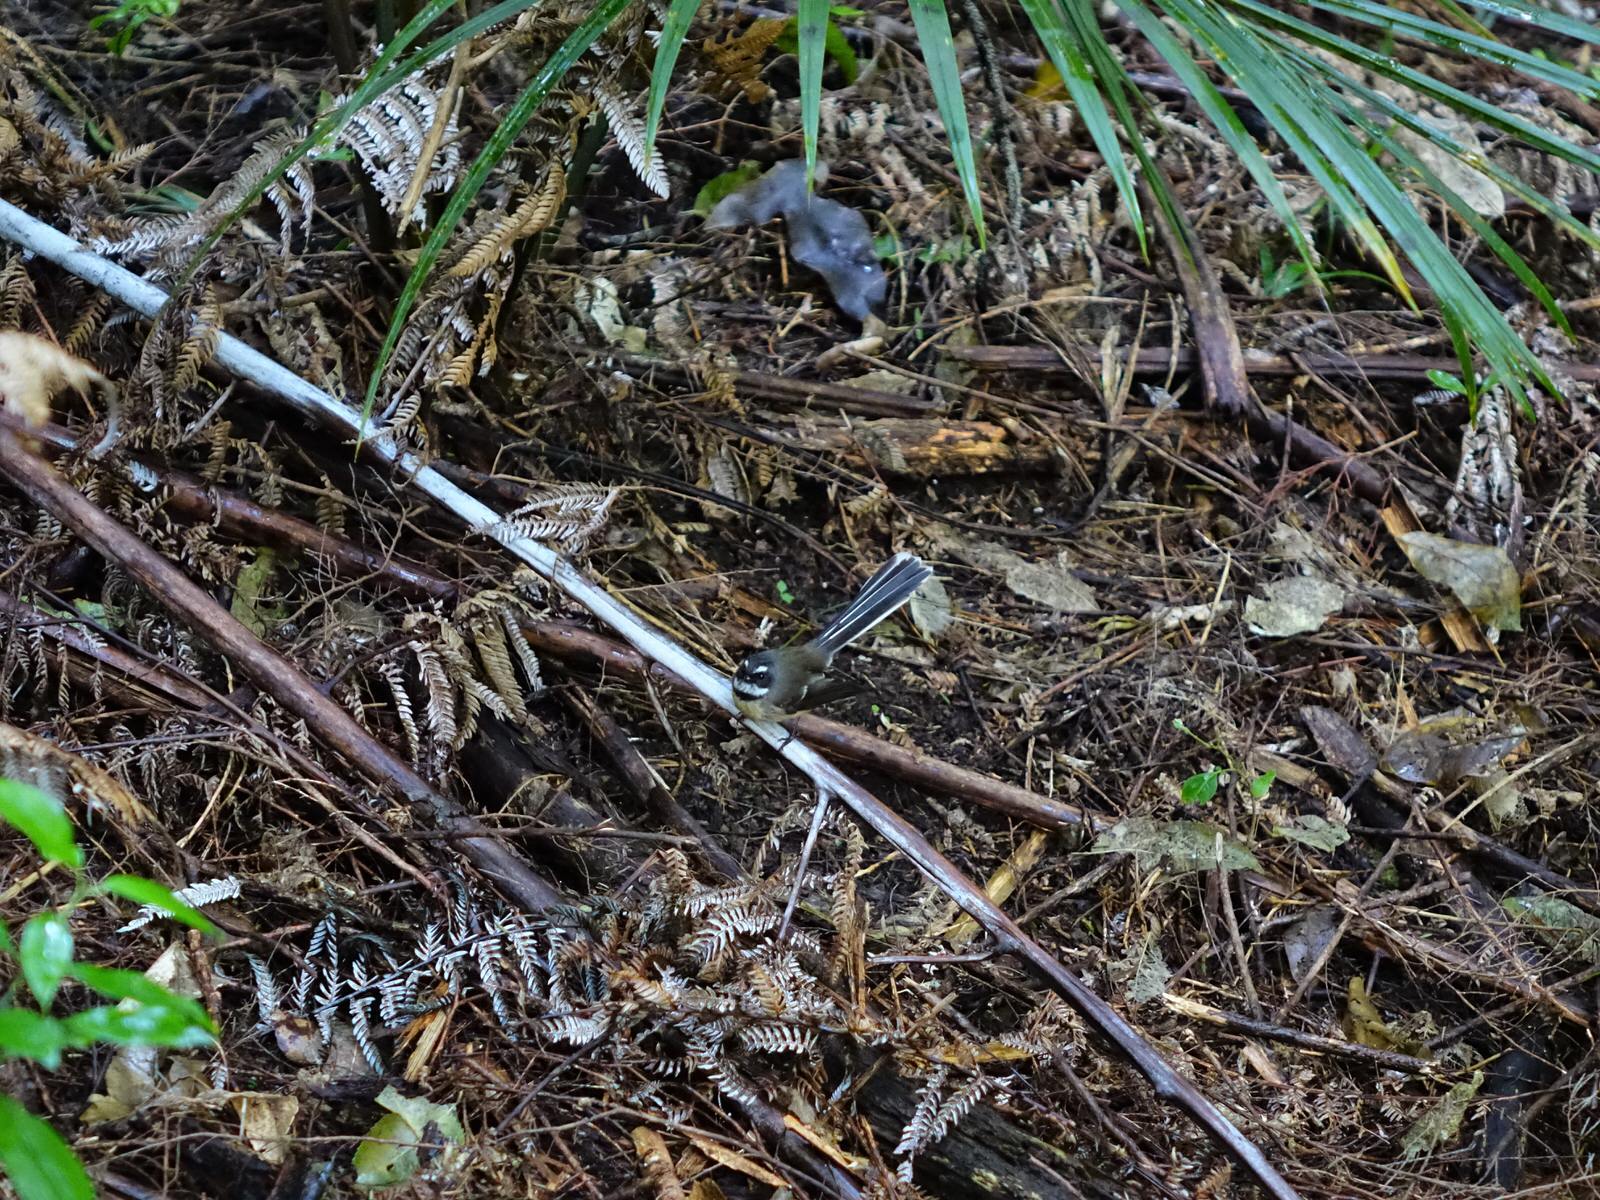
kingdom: Animalia
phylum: Chordata
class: Aves
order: Passeriformes
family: Rhipiduridae
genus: Rhipidura
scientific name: Rhipidura fuliginosa
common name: New zealand fantail
